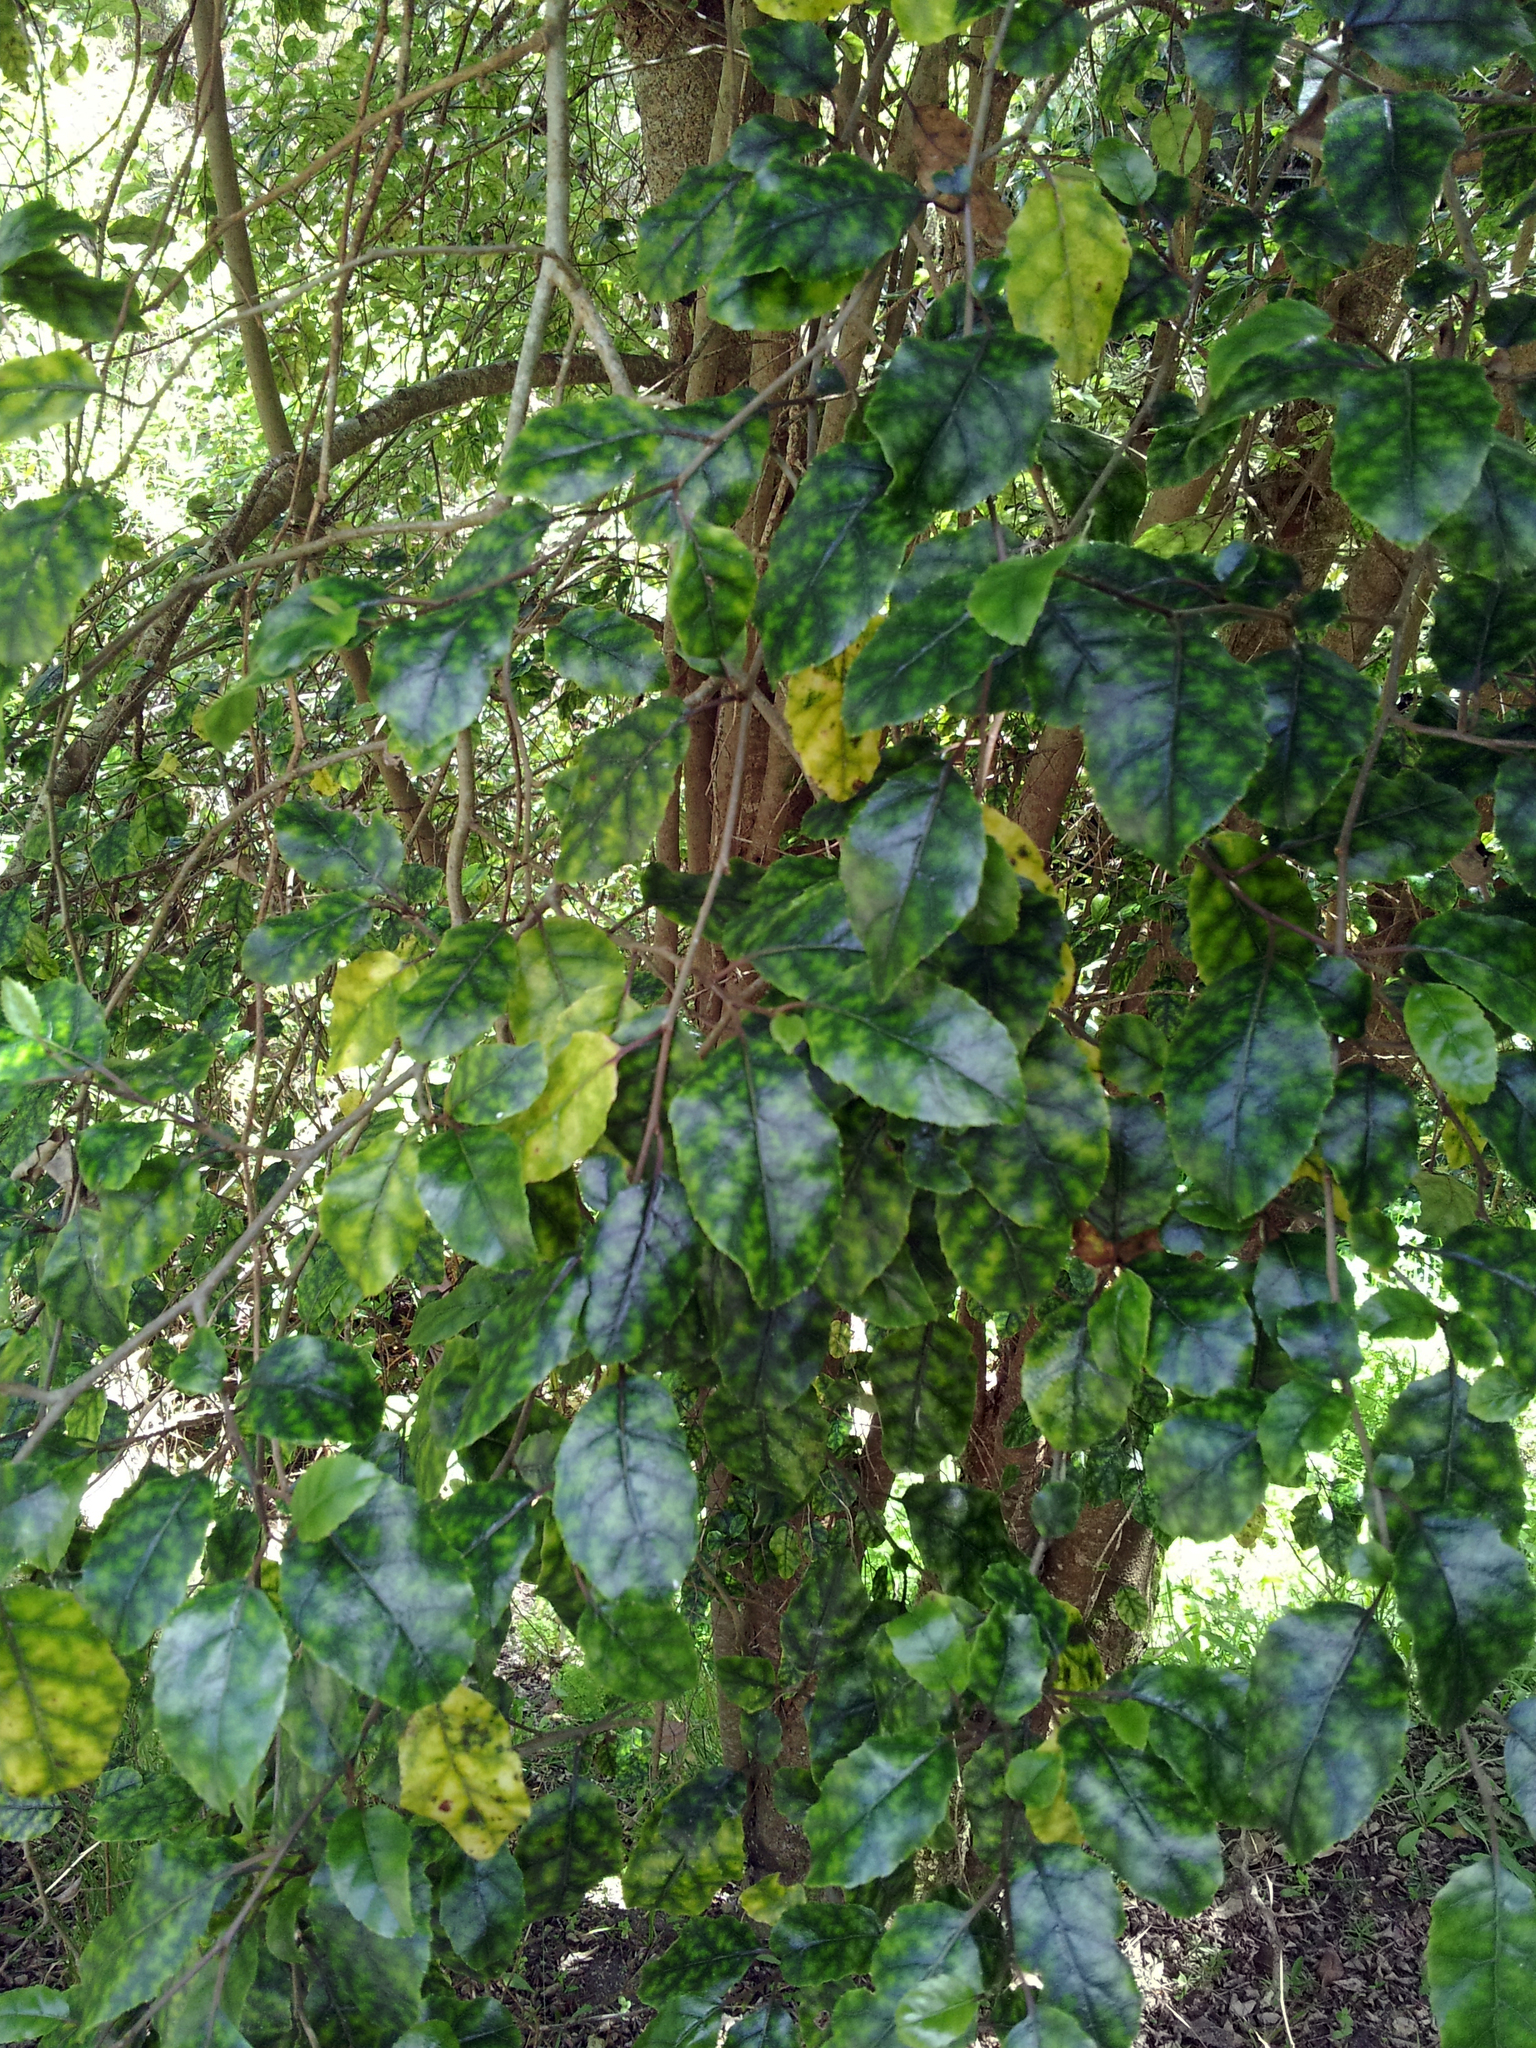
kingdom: Plantae
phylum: Tracheophyta
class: Magnoliopsida
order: Asterales
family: Rousseaceae
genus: Carpodetus
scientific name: Carpodetus serratus
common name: White mapau
